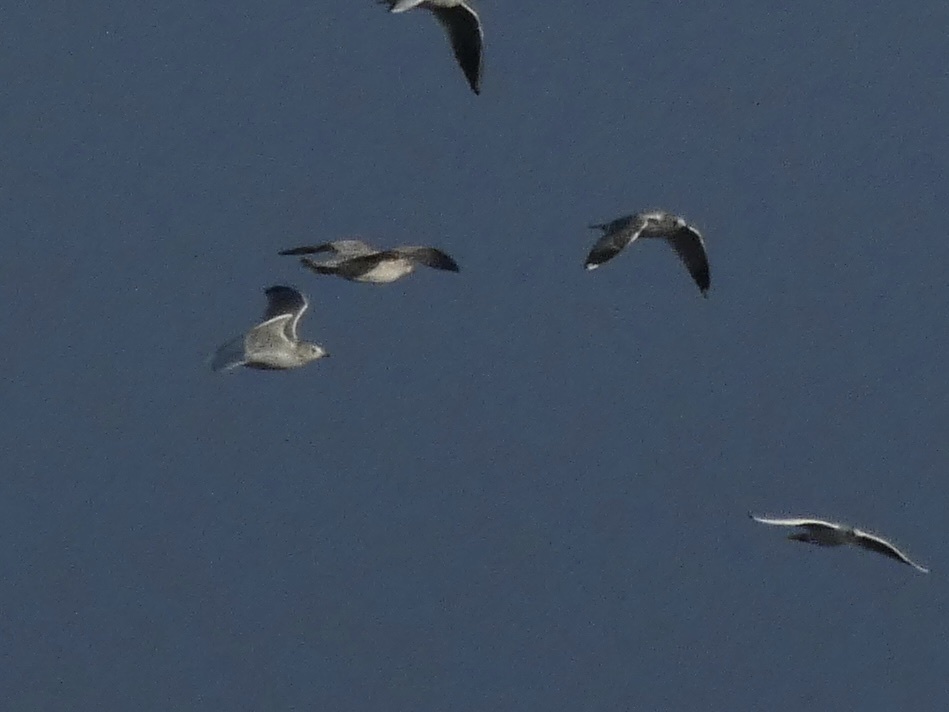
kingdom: Animalia
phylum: Chordata
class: Aves
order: Charadriiformes
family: Laridae
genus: Larus
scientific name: Larus canus
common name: Mew gull
